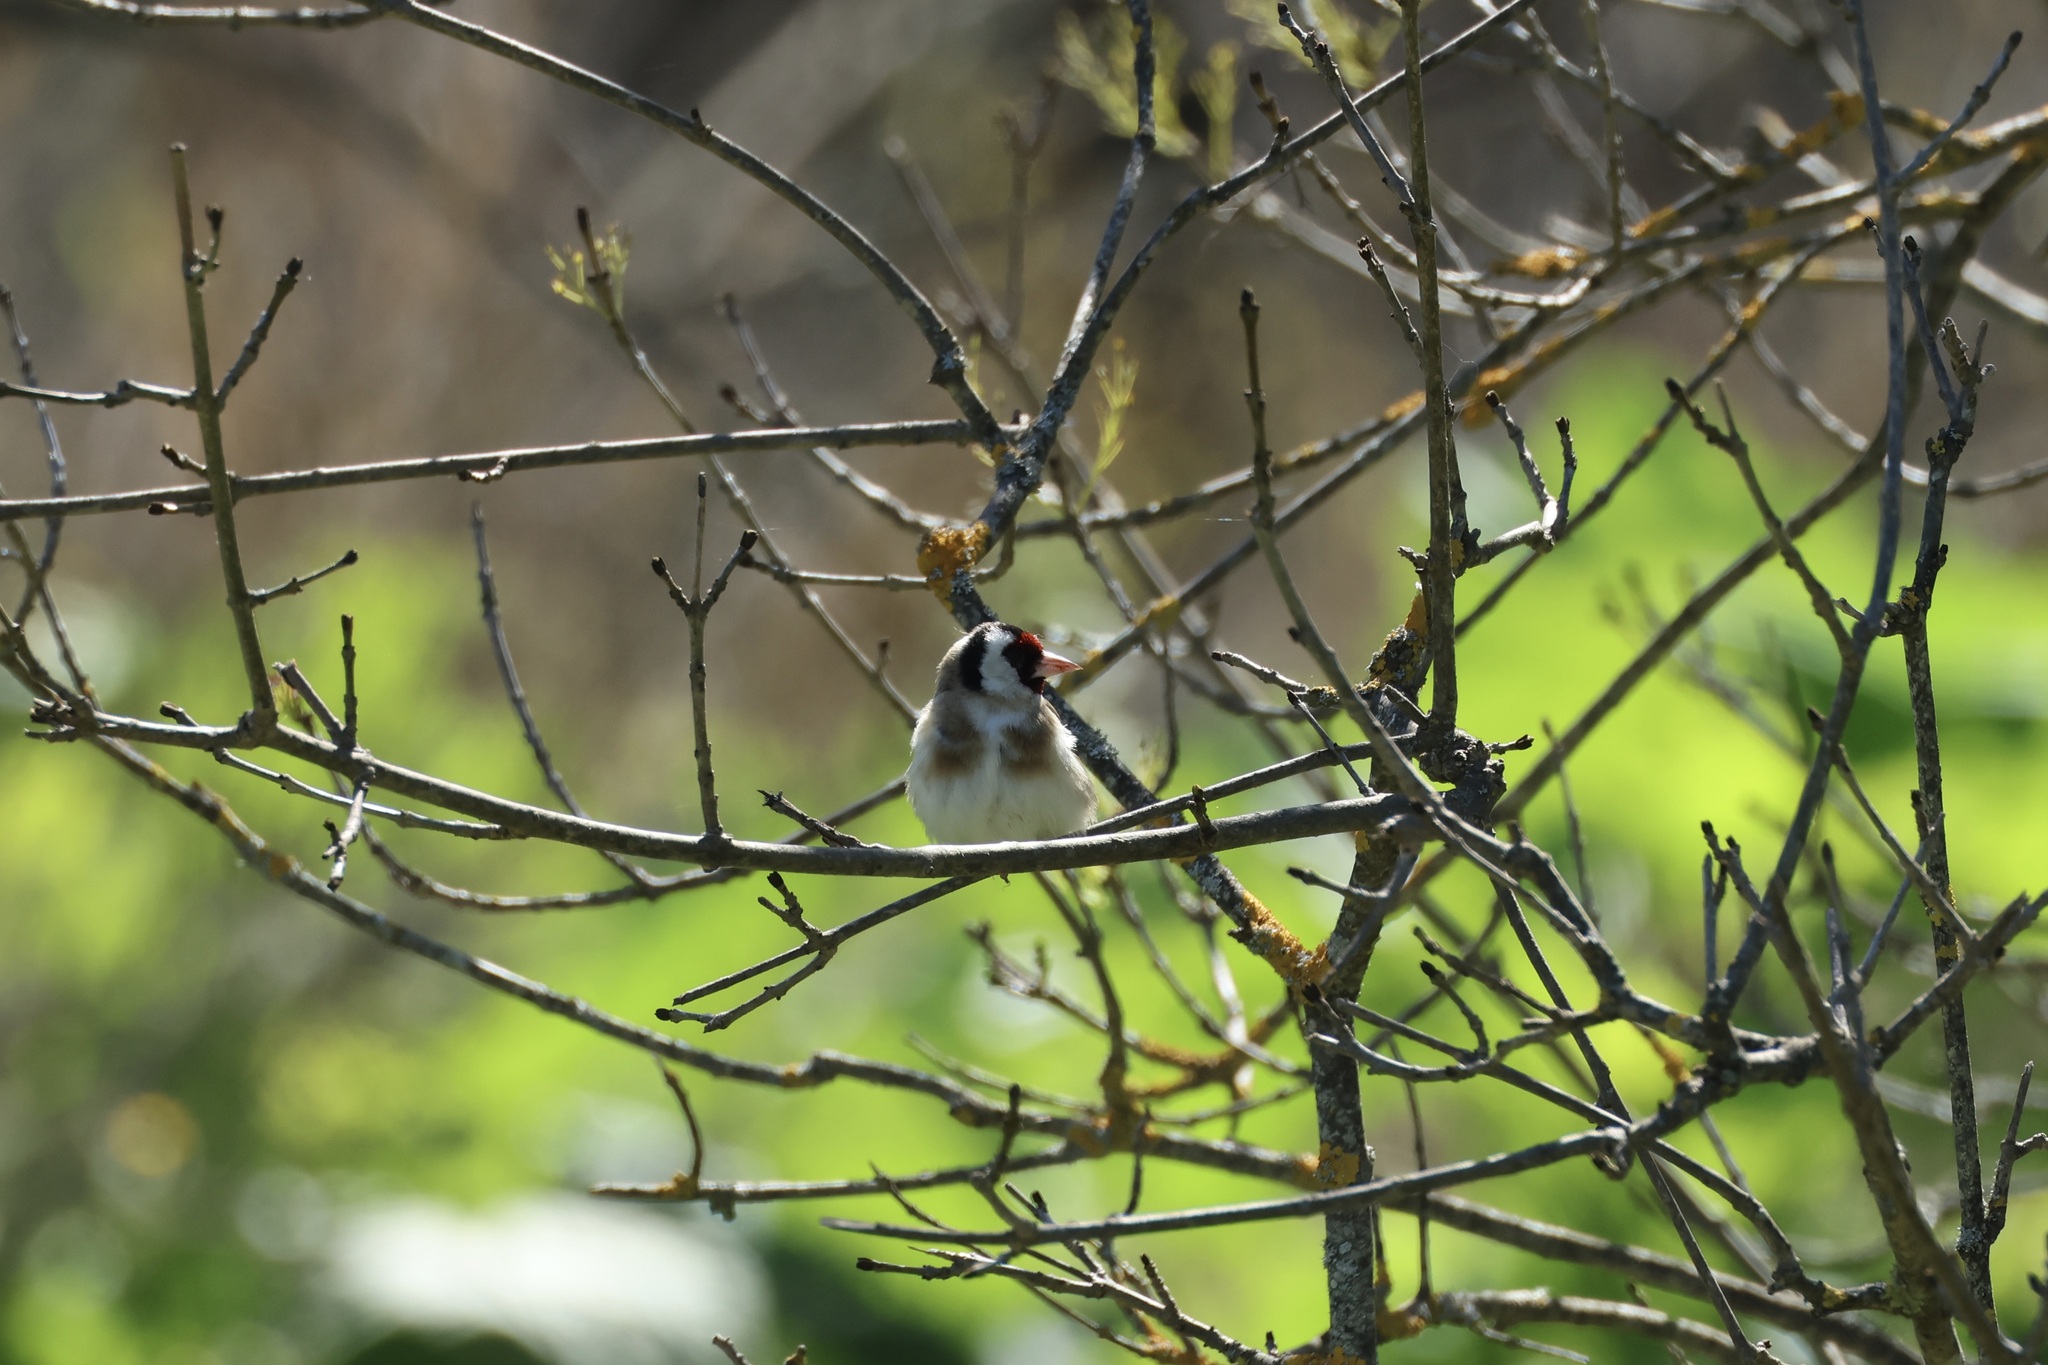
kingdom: Animalia
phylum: Chordata
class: Aves
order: Passeriformes
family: Fringillidae
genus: Carduelis
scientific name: Carduelis carduelis
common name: European goldfinch
